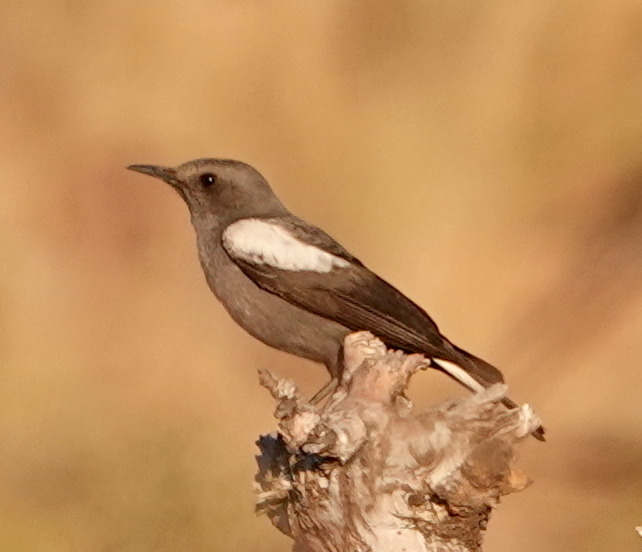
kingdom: Animalia
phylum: Chordata
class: Aves
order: Passeriformes
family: Muscicapidae
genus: Oenanthe
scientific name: Oenanthe monticola
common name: Mountain wheatear
